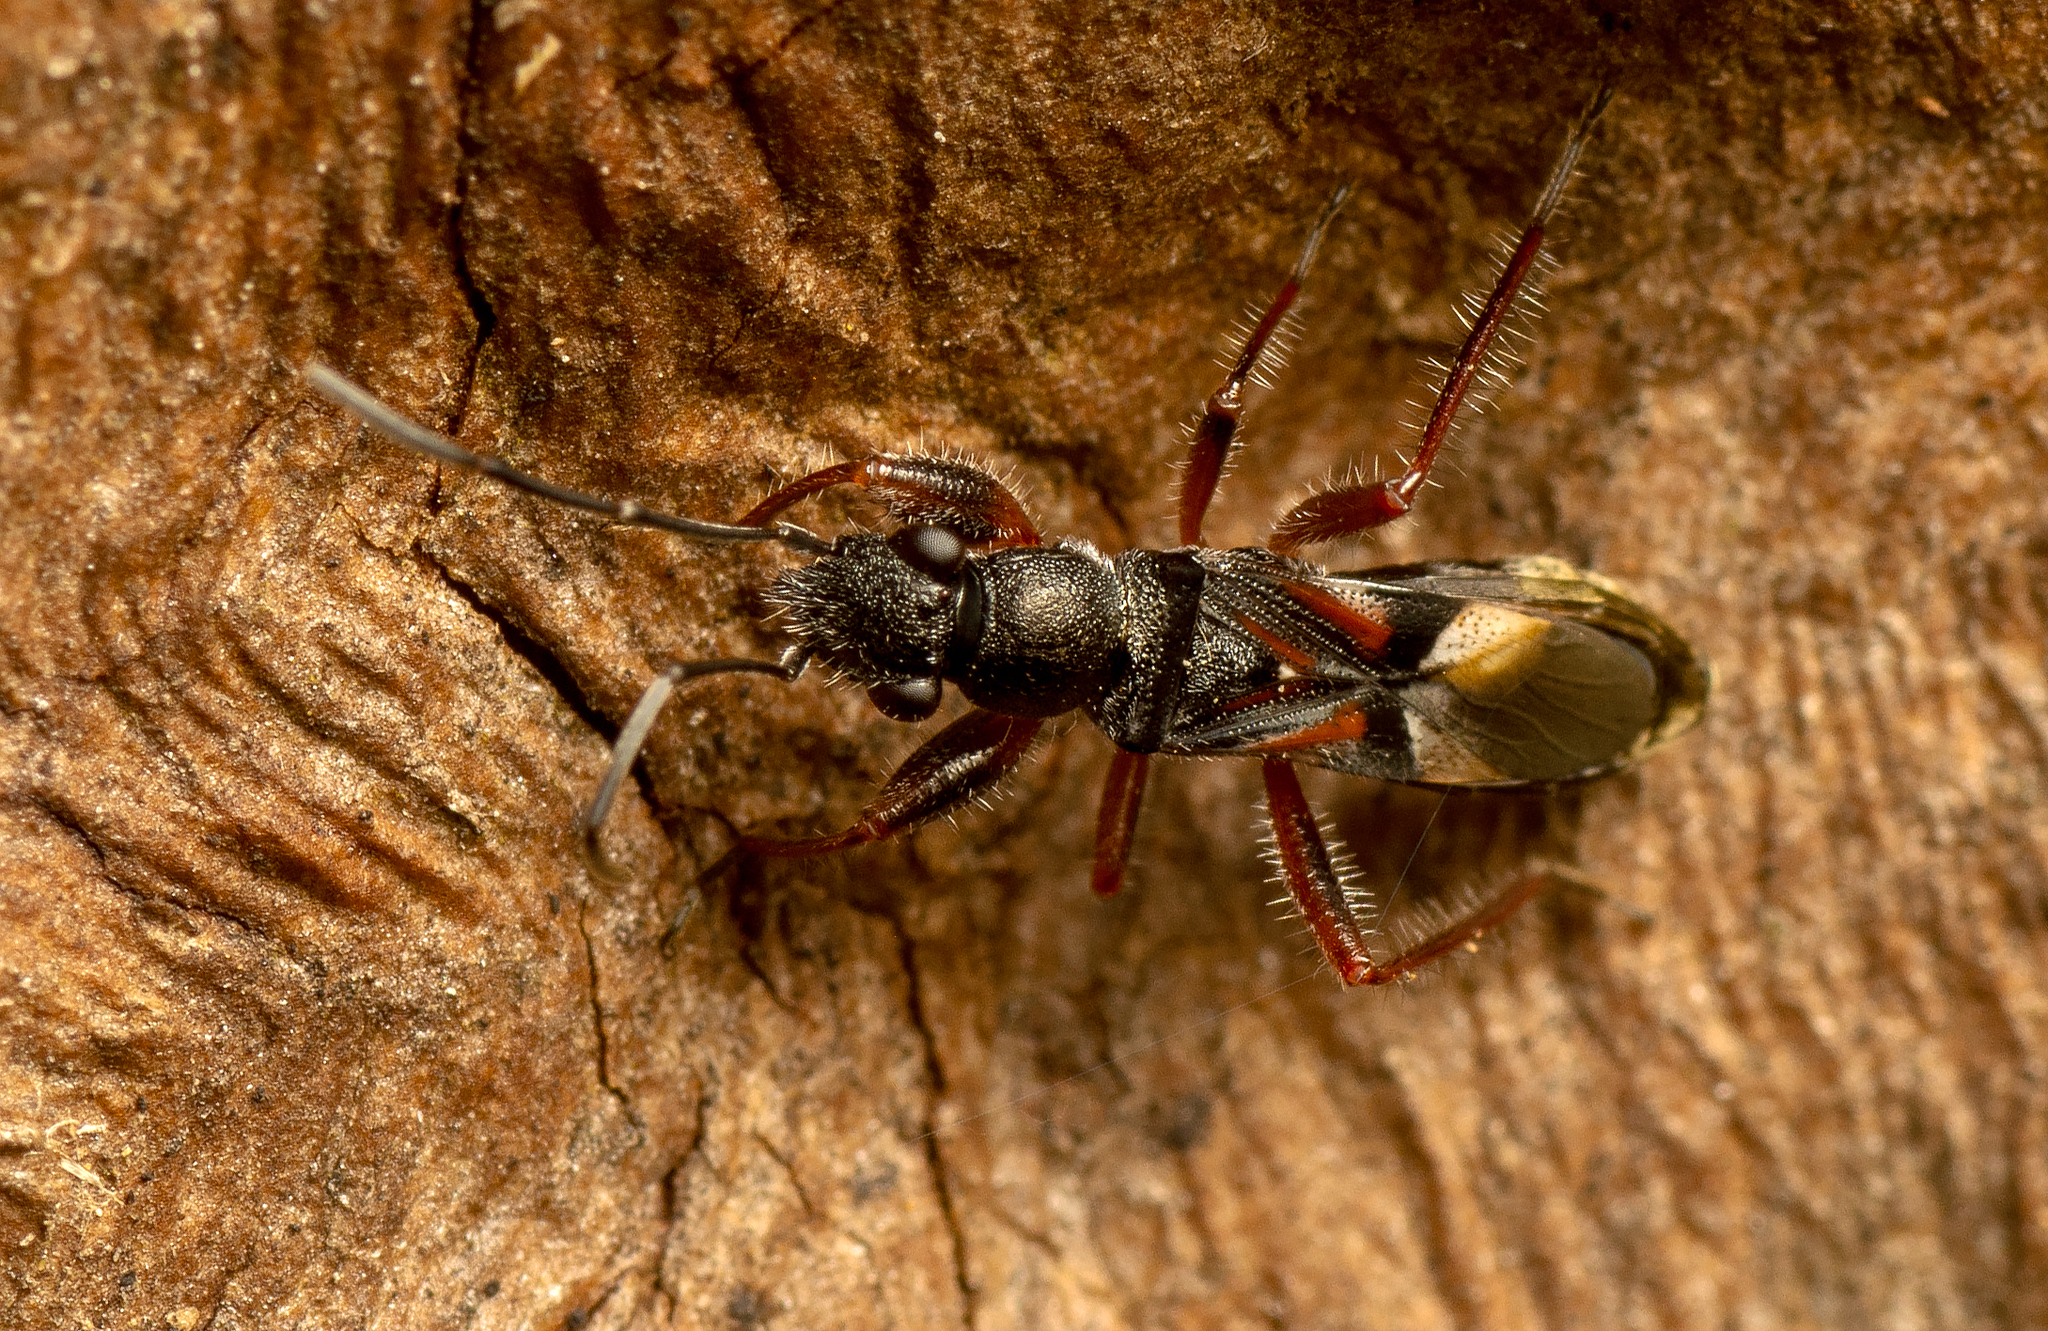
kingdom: Animalia
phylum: Arthropoda
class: Insecta
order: Hemiptera
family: Rhyparochromidae
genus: Daerlac
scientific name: Daerlac cephalotes
